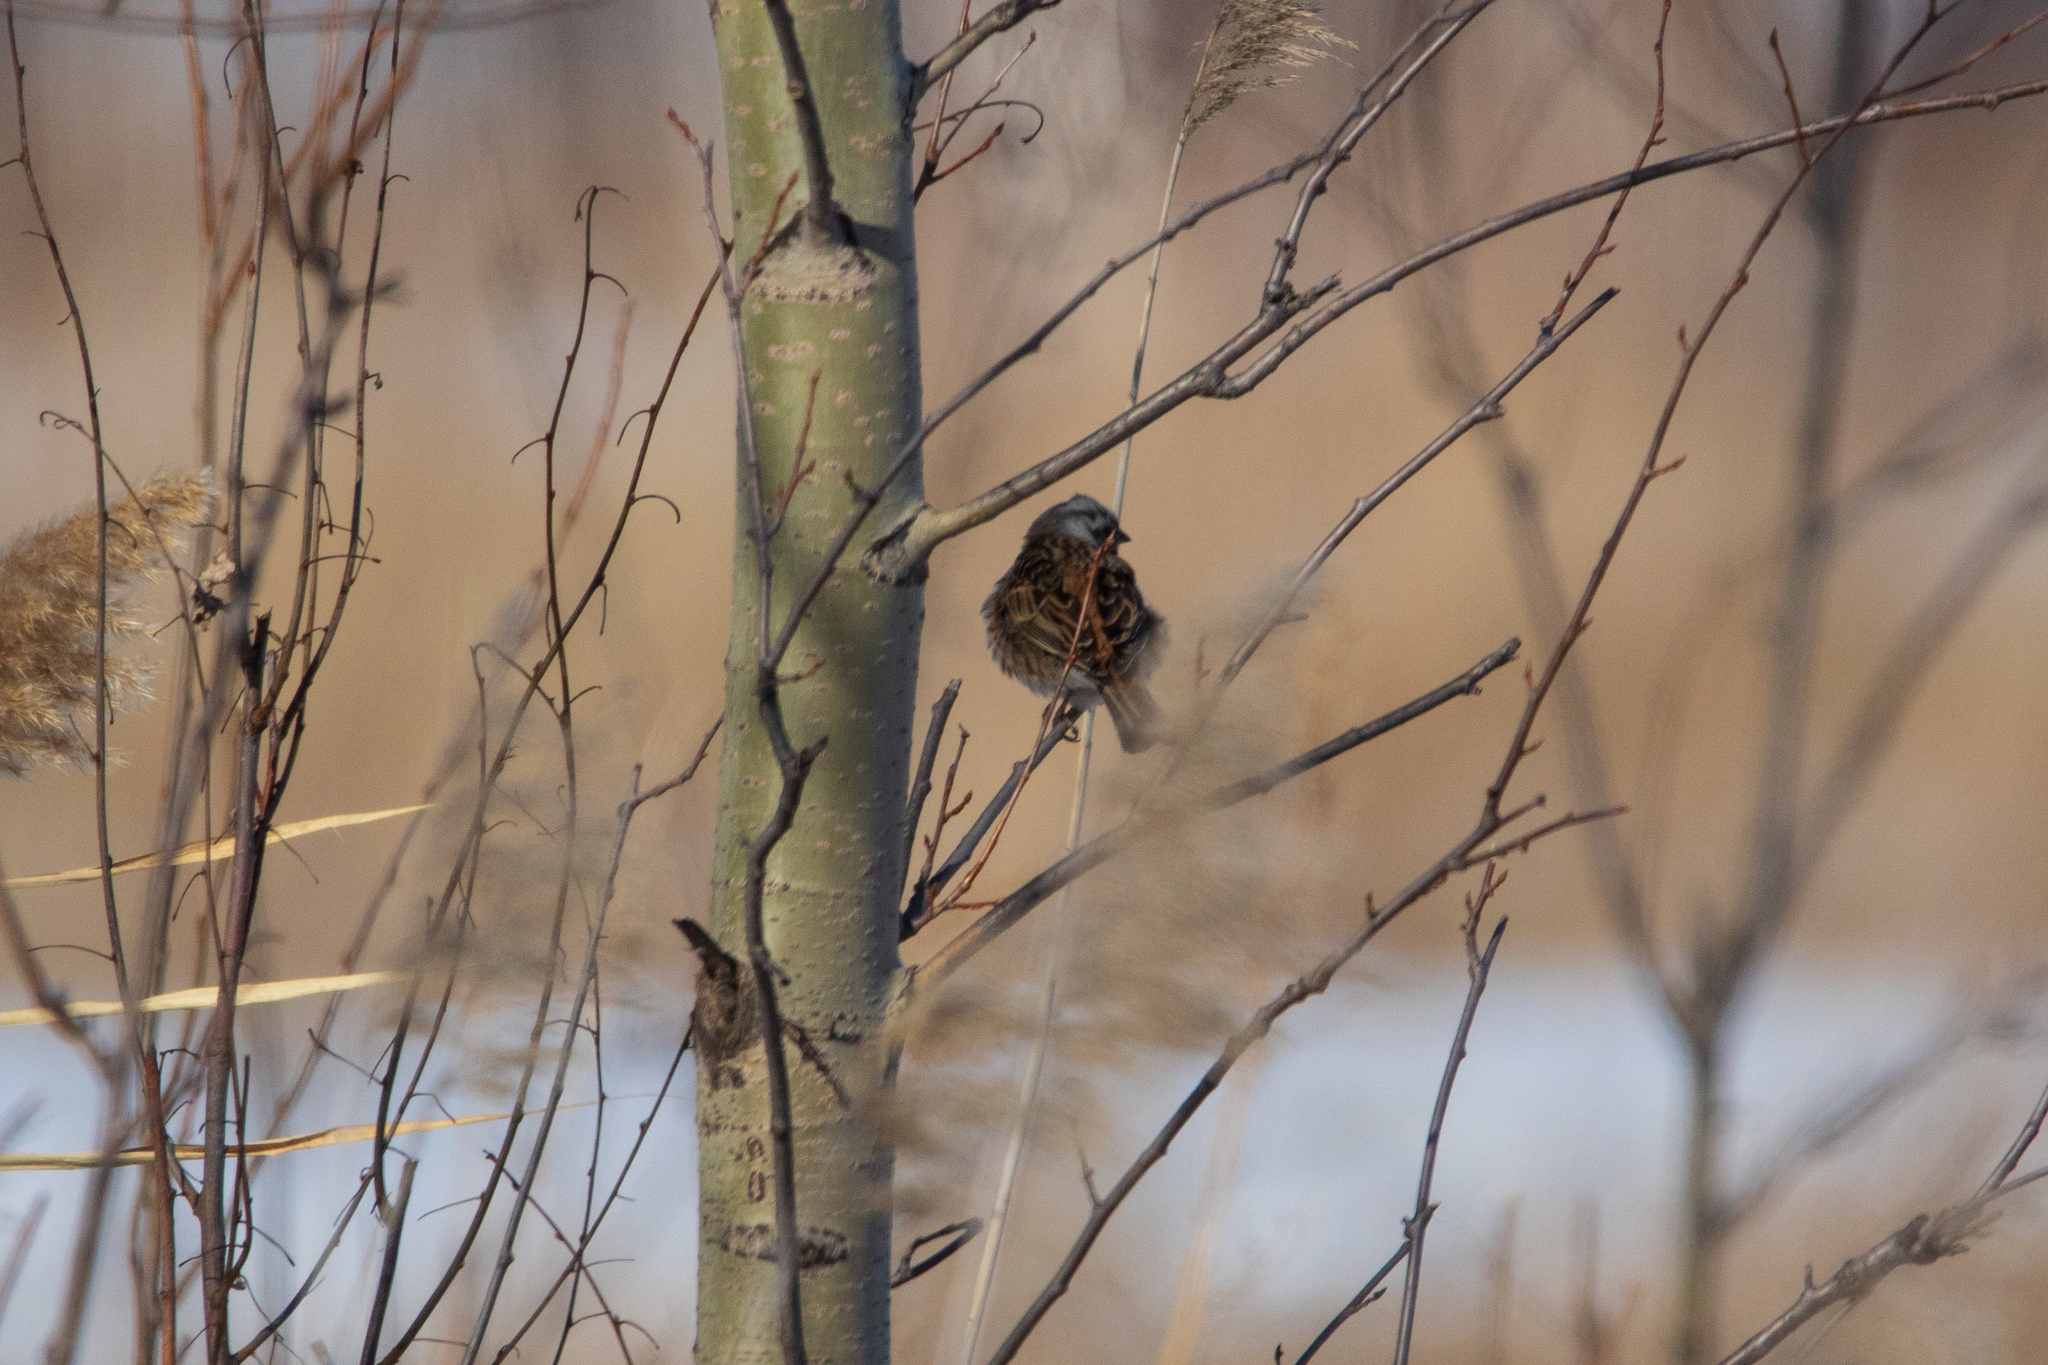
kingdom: Animalia
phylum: Chordata
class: Aves
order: Passeriformes
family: Emberizidae
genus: Emberiza
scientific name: Emberiza
